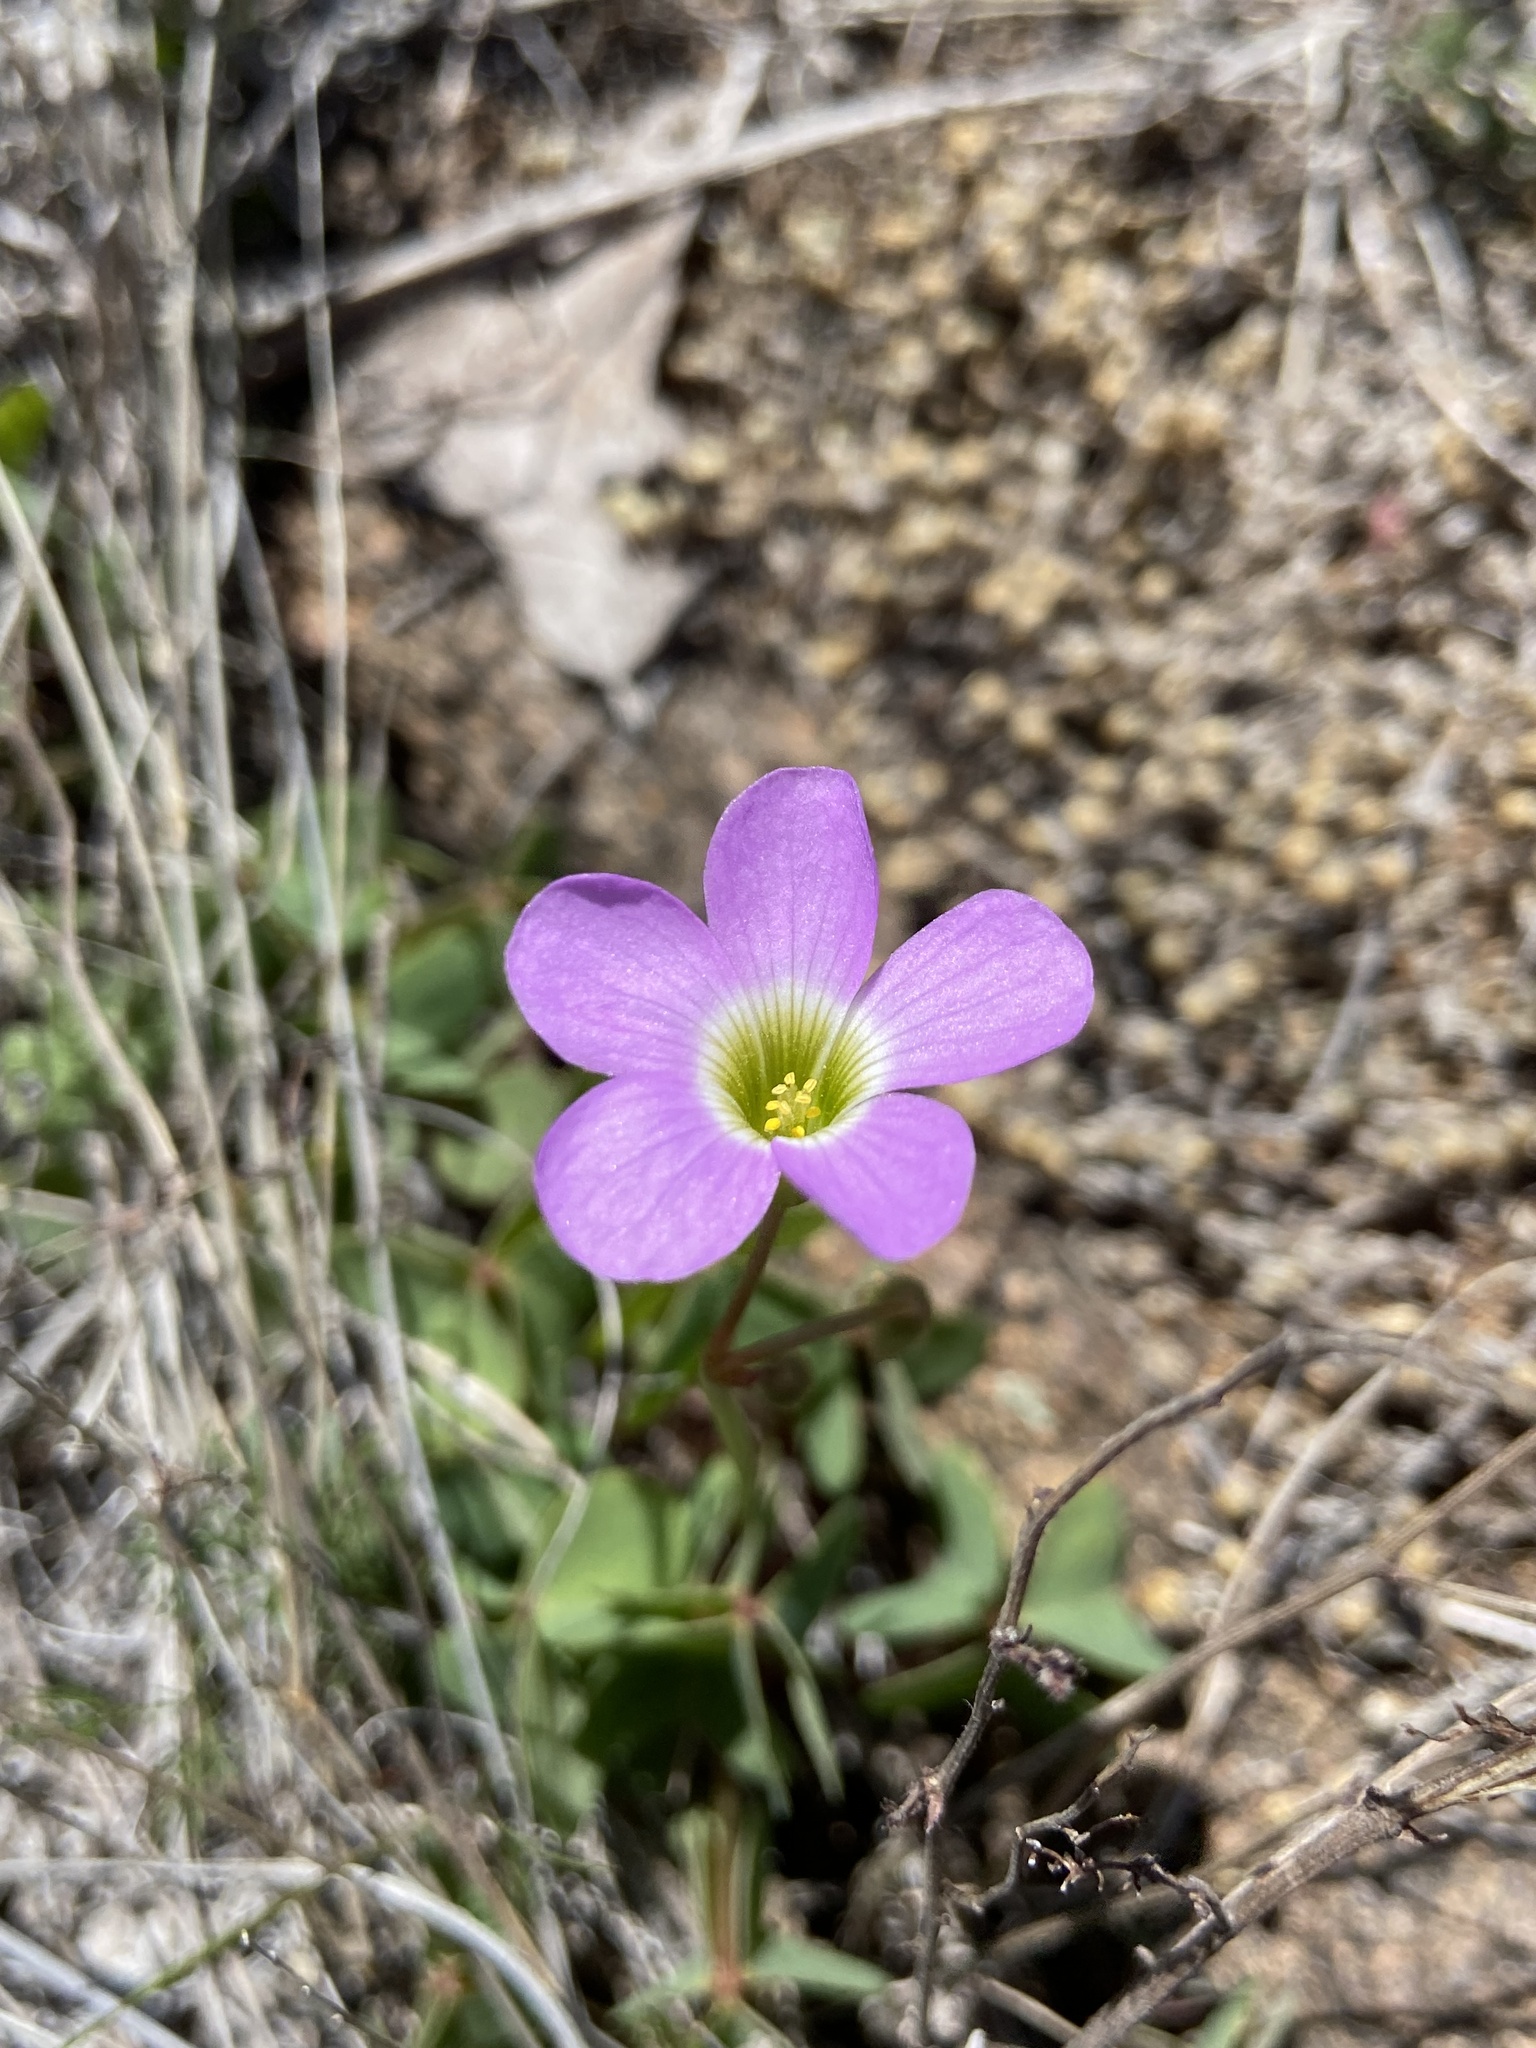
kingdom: Plantae
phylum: Tracheophyta
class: Magnoliopsida
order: Oxalidales
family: Oxalidaceae
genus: Oxalis
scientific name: Oxalis violacea
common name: Violet wood-sorrel
